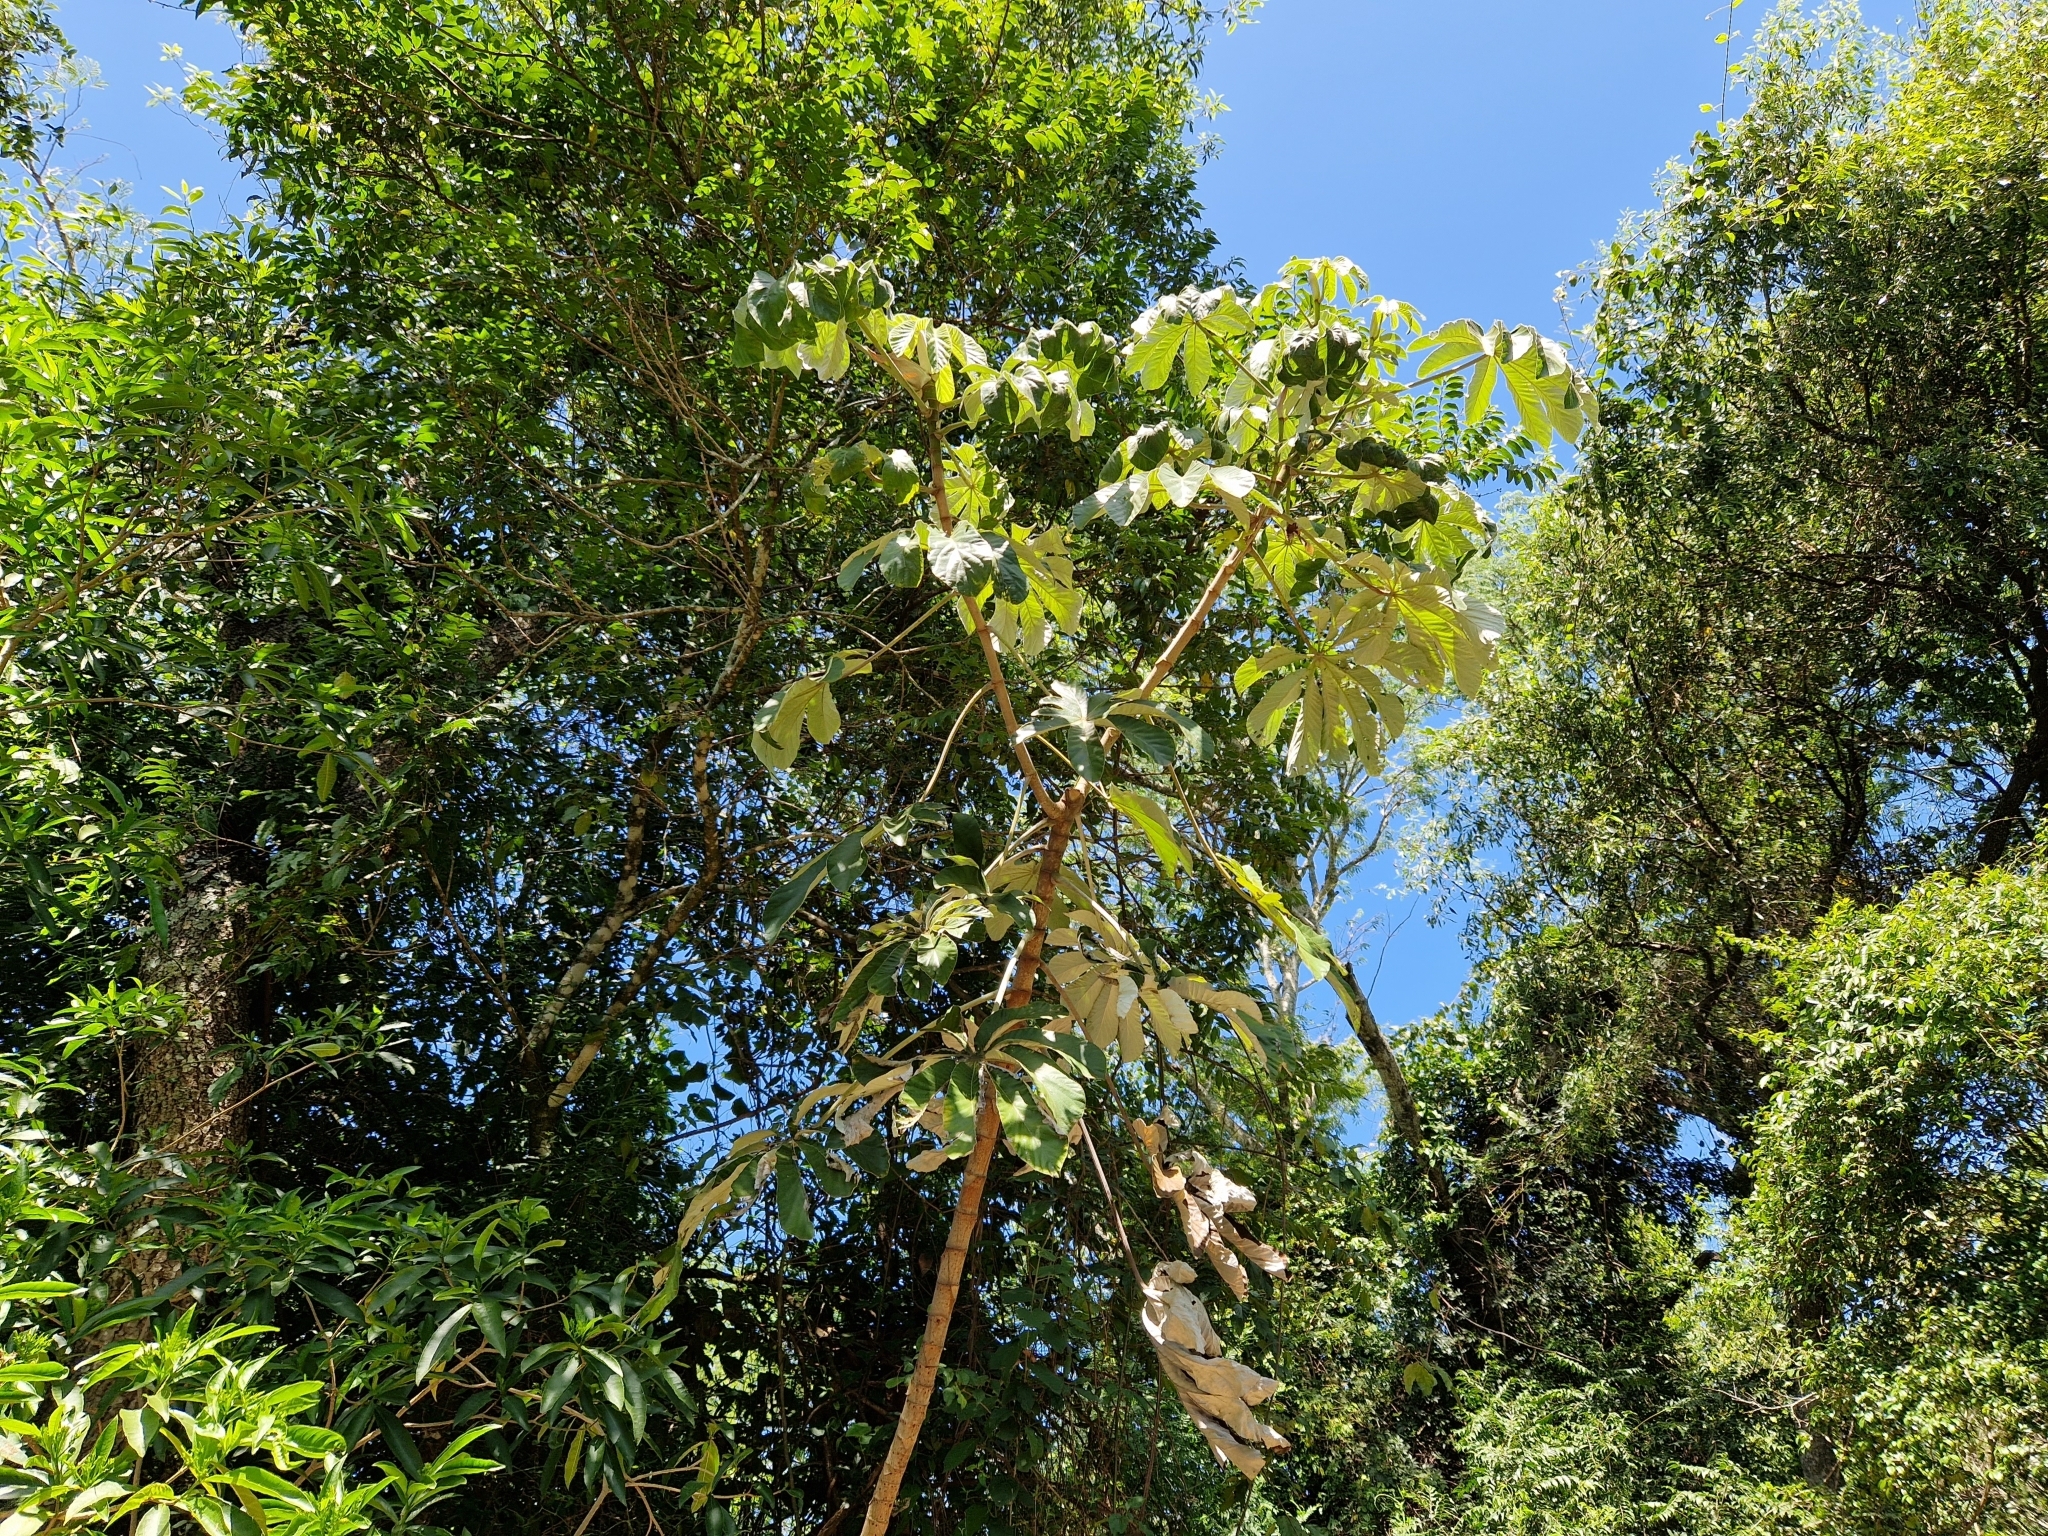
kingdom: Plantae
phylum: Tracheophyta
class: Magnoliopsida
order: Rosales
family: Urticaceae
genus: Cecropia
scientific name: Cecropia pachystachya
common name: Ambay pumpwood
